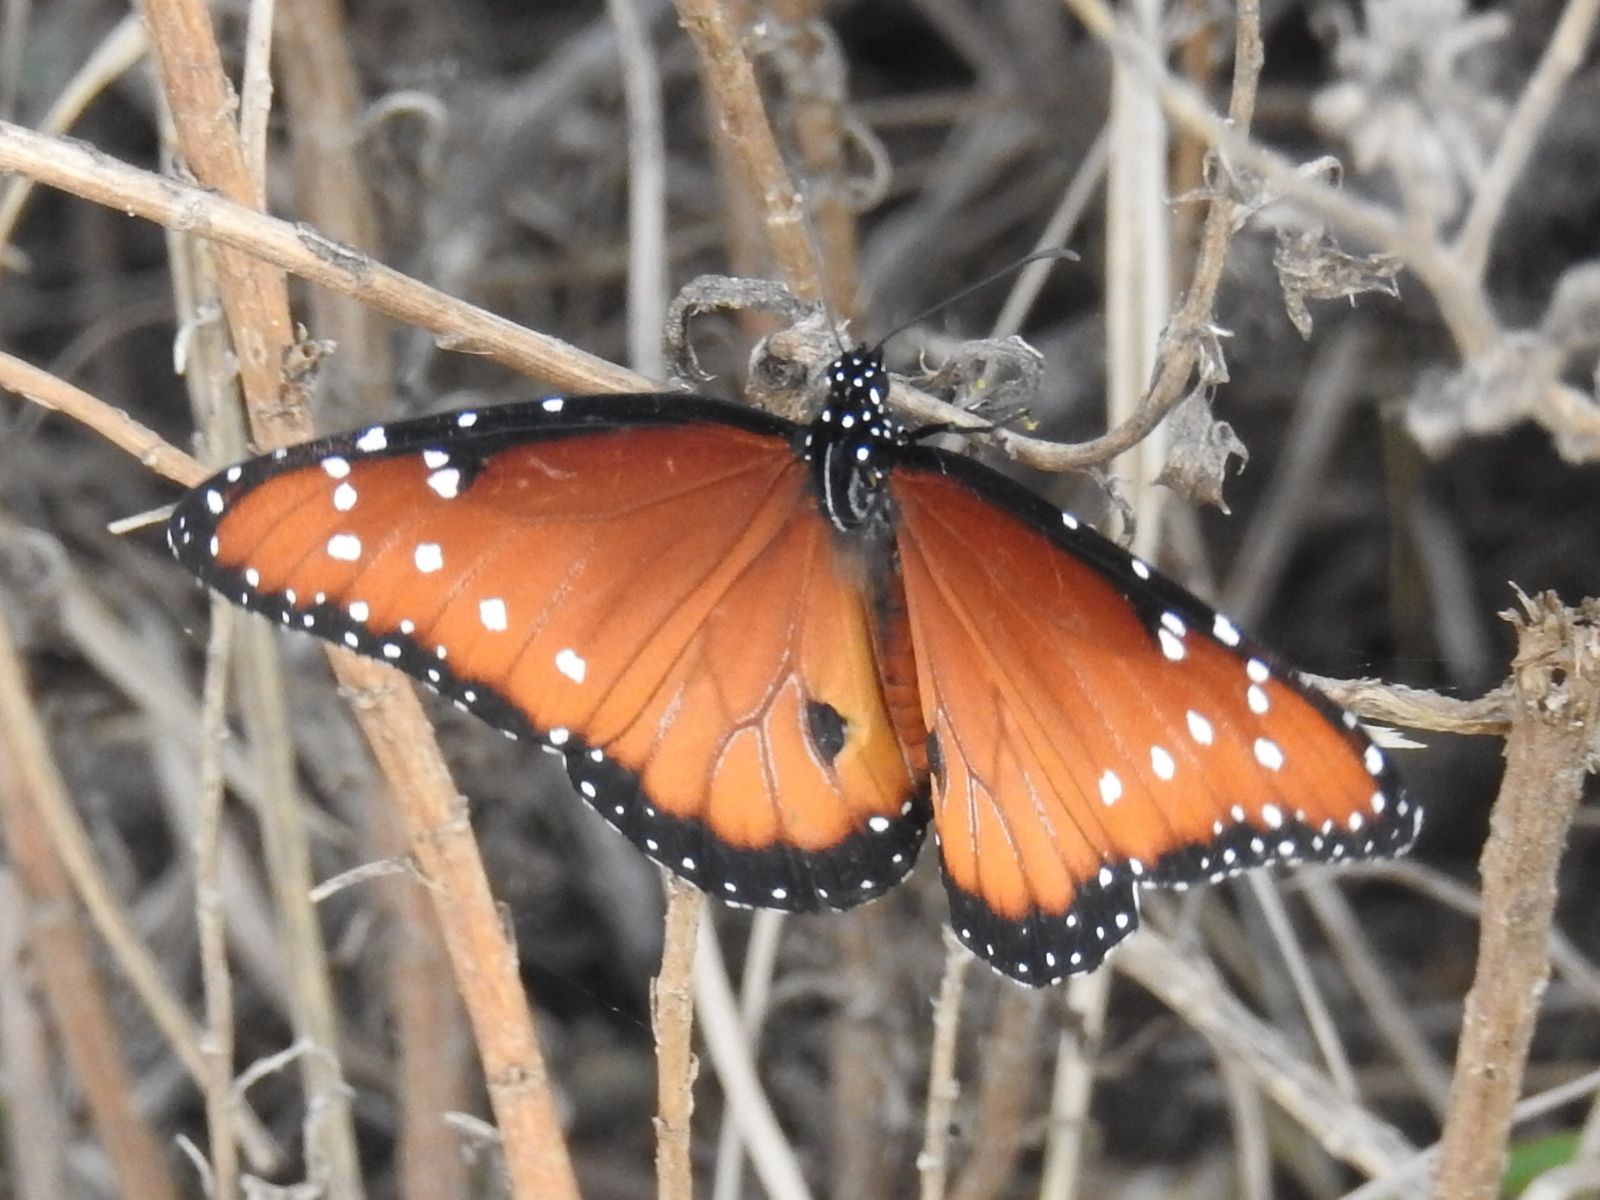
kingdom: Animalia
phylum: Arthropoda
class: Insecta
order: Lepidoptera
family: Nymphalidae
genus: Danaus
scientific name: Danaus gilippus
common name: Queen
